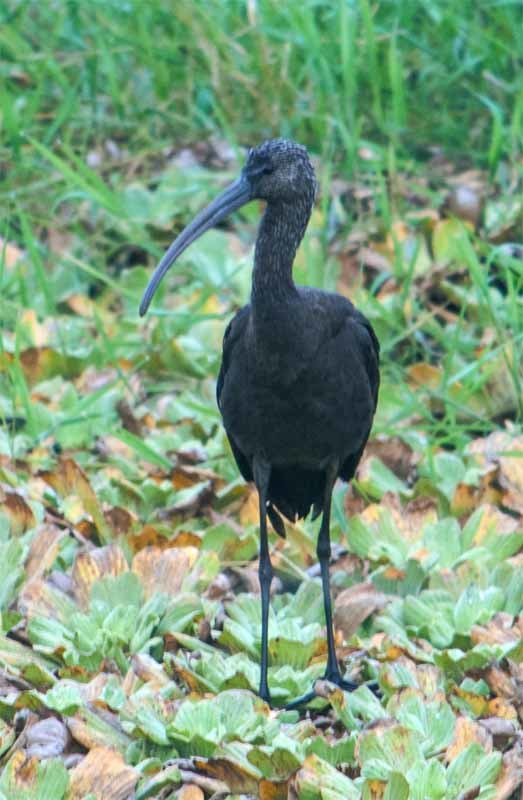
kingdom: Animalia
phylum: Chordata
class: Aves
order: Pelecaniformes
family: Threskiornithidae
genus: Plegadis
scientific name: Plegadis falcinellus
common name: Glossy ibis
